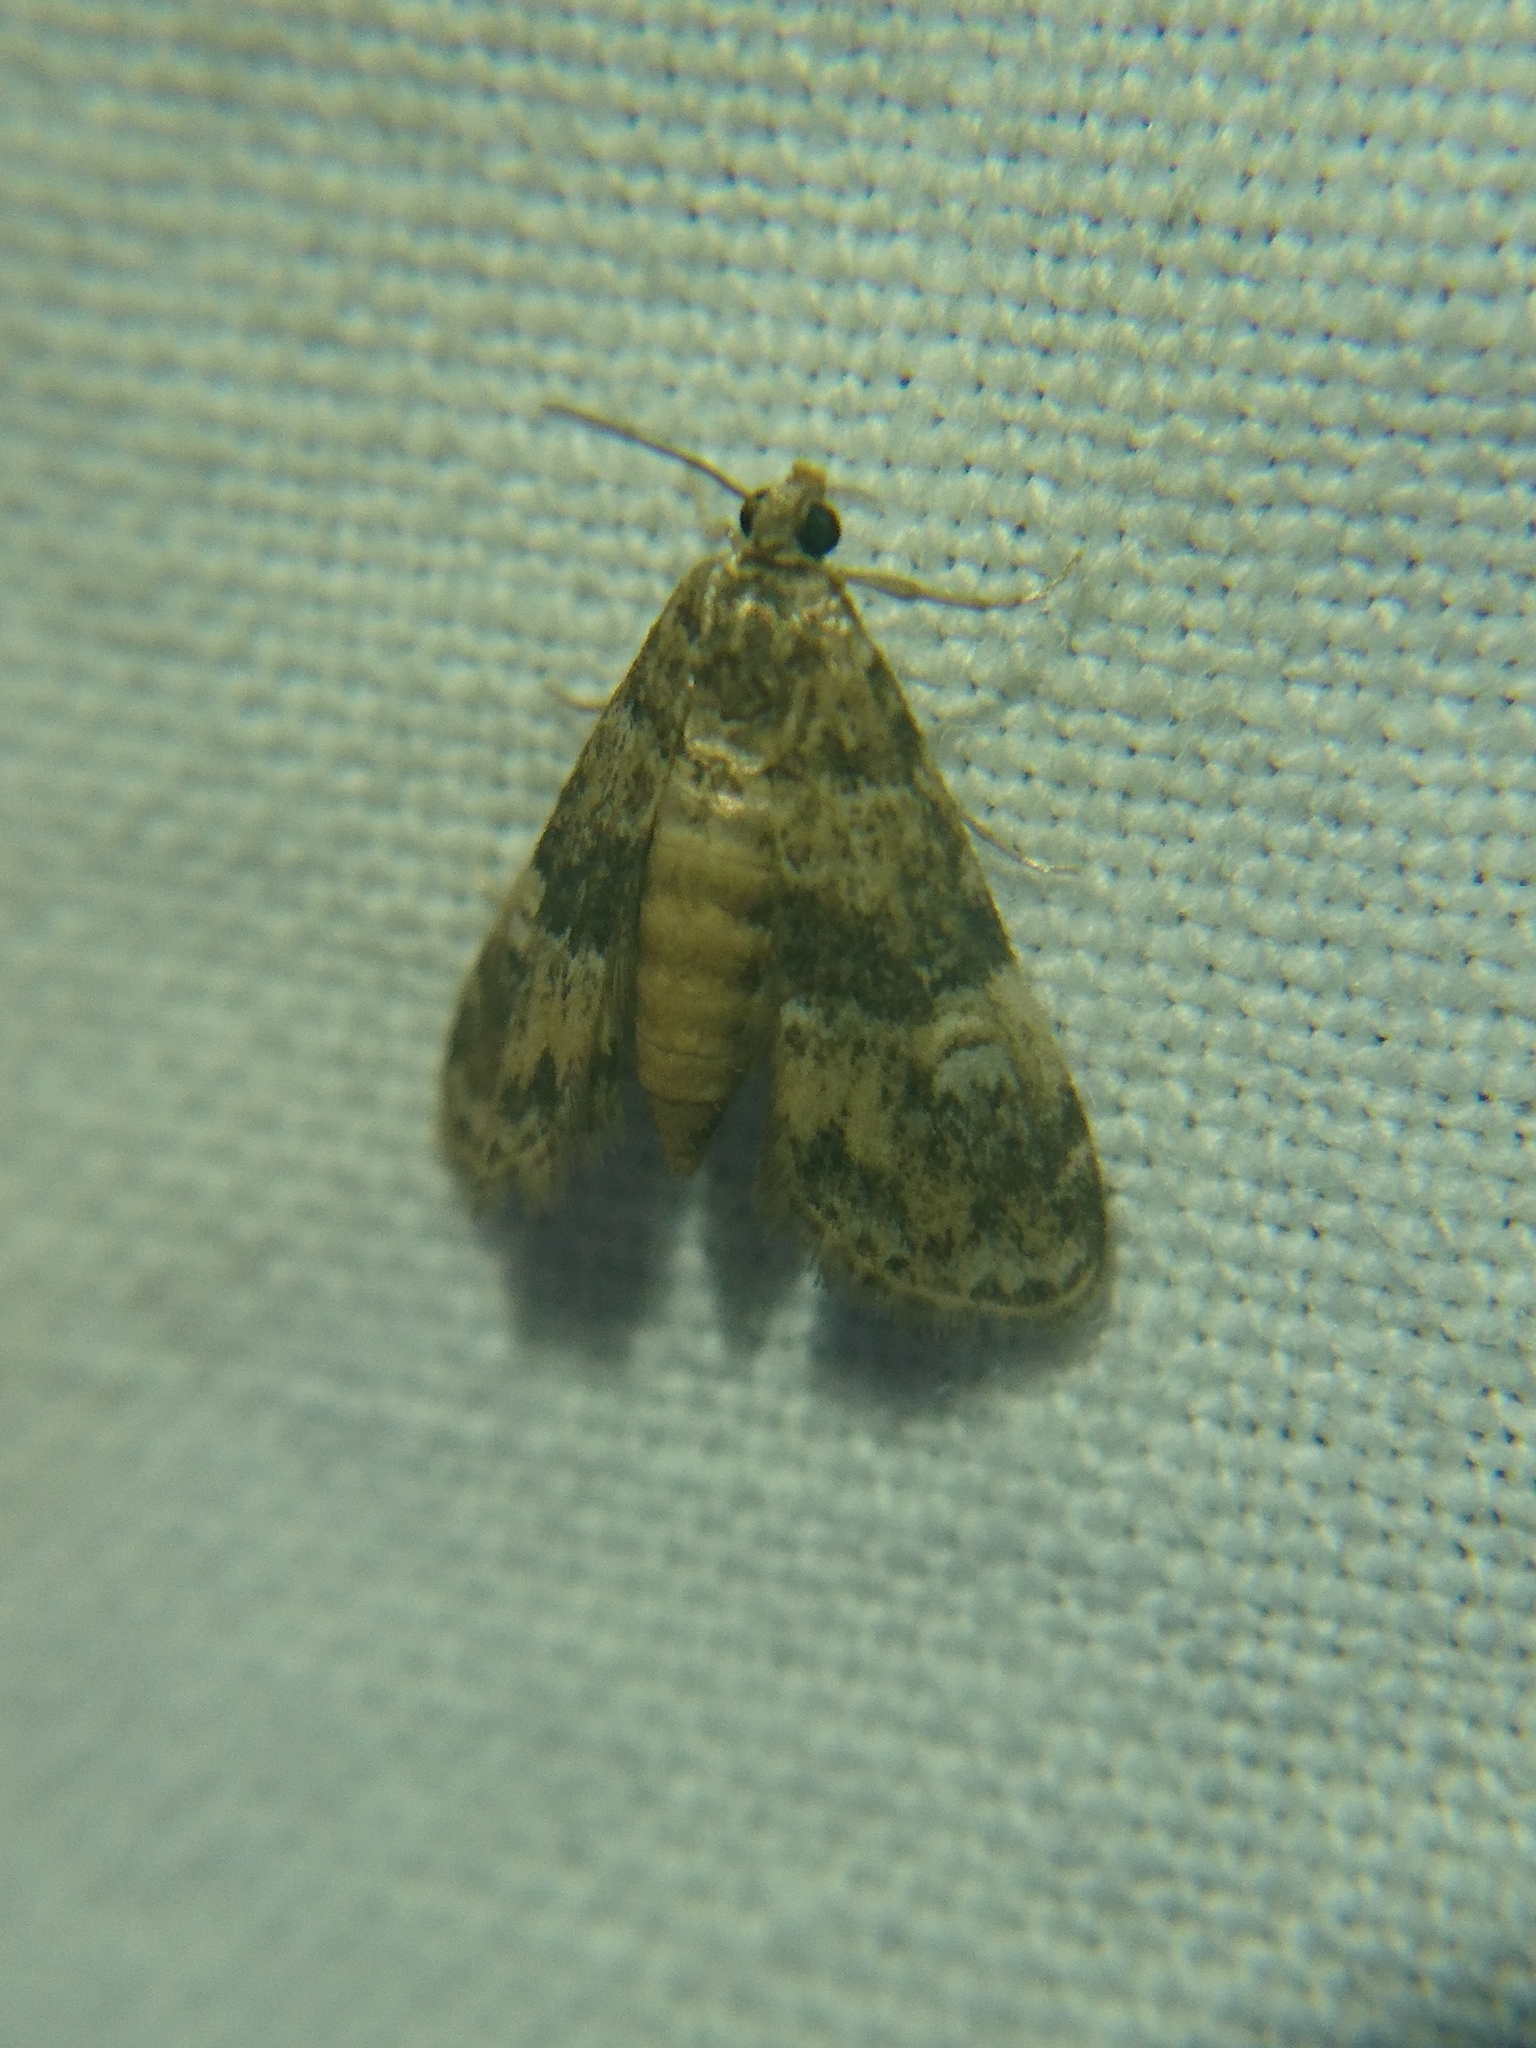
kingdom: Animalia
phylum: Arthropoda
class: Insecta
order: Lepidoptera
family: Crambidae
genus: Elophila
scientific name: Elophila obliteralis
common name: Waterlily leafcutter moth
